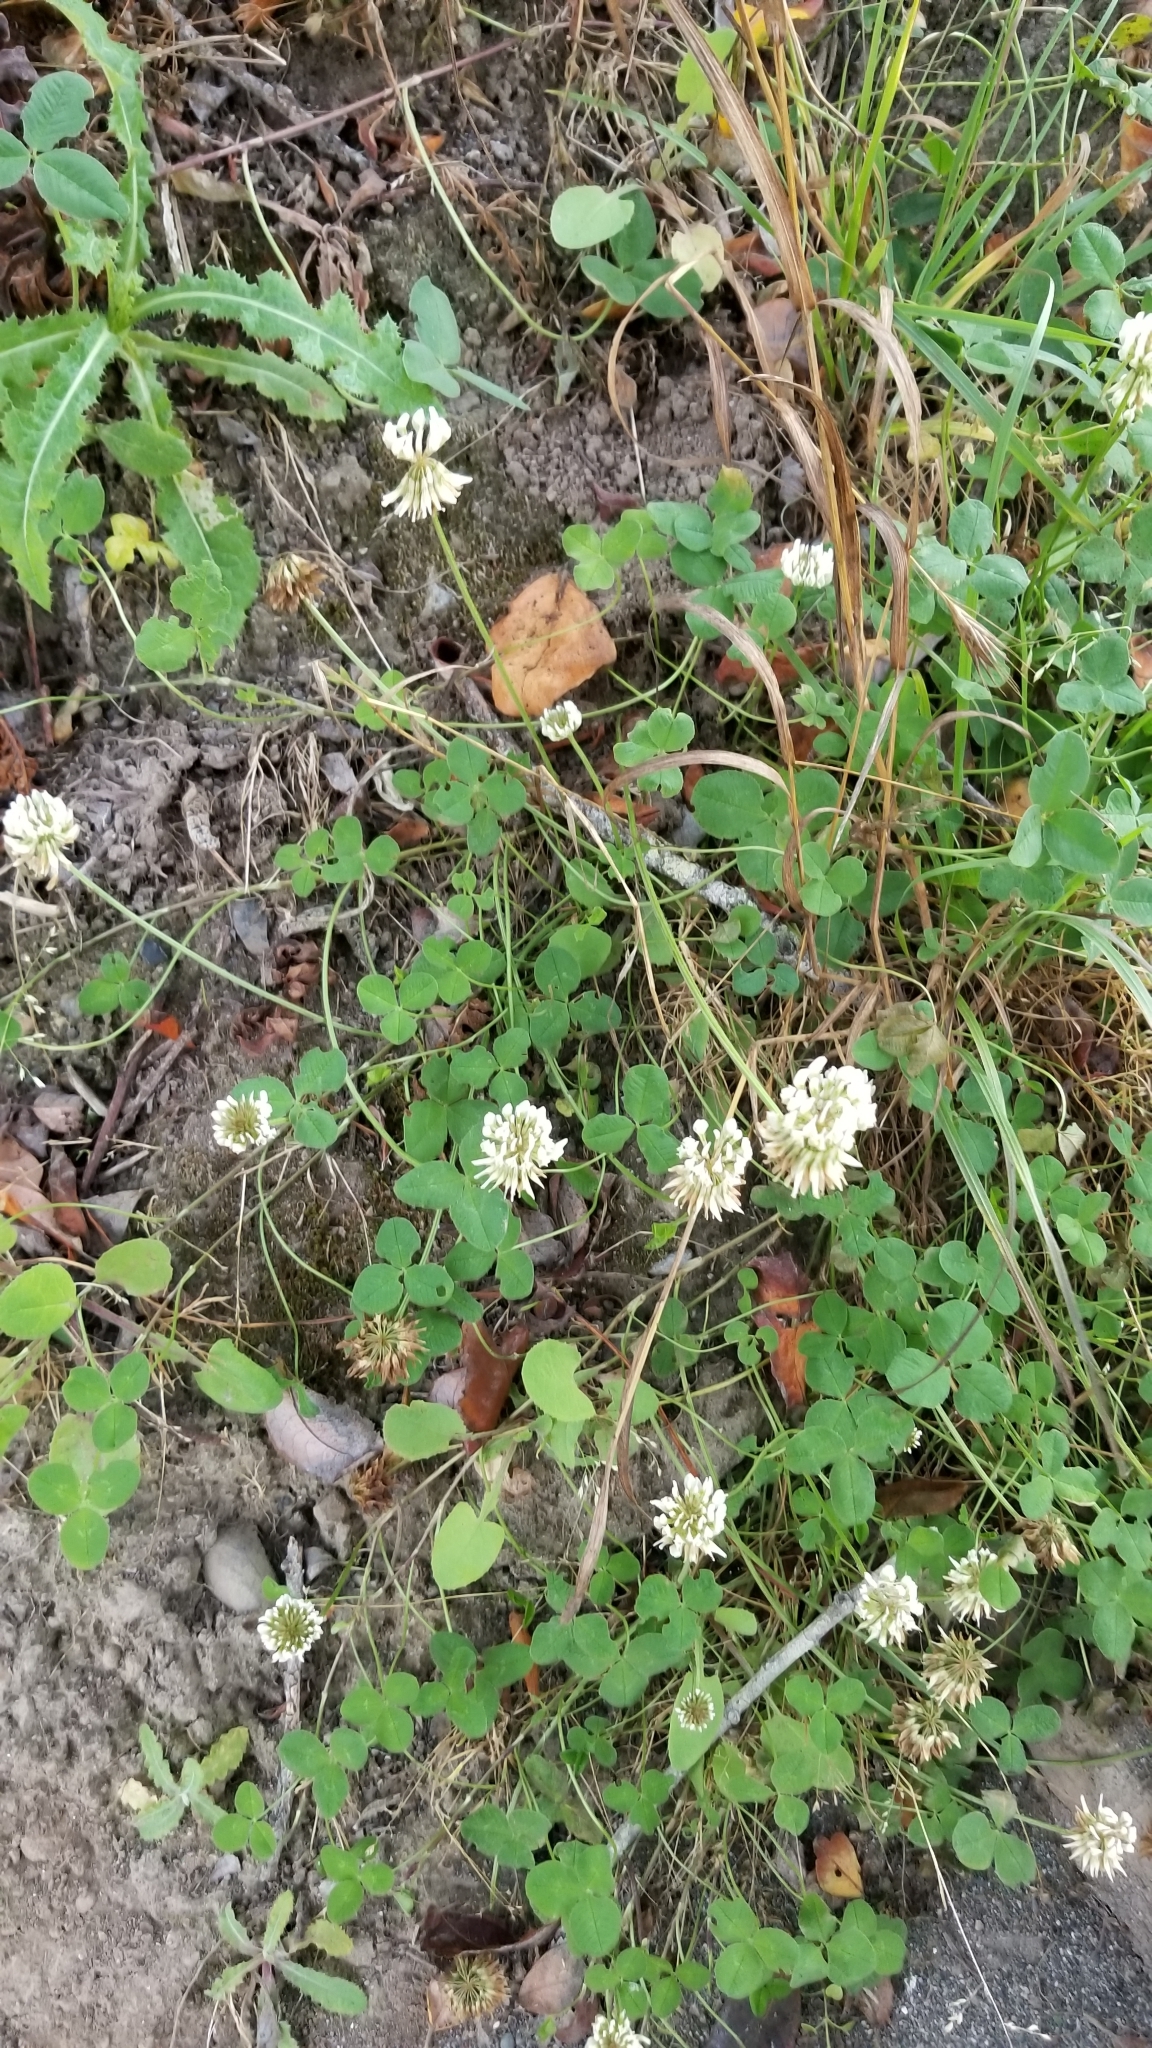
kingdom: Plantae
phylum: Tracheophyta
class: Magnoliopsida
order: Fabales
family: Fabaceae
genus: Trifolium
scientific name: Trifolium repens
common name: White clover
